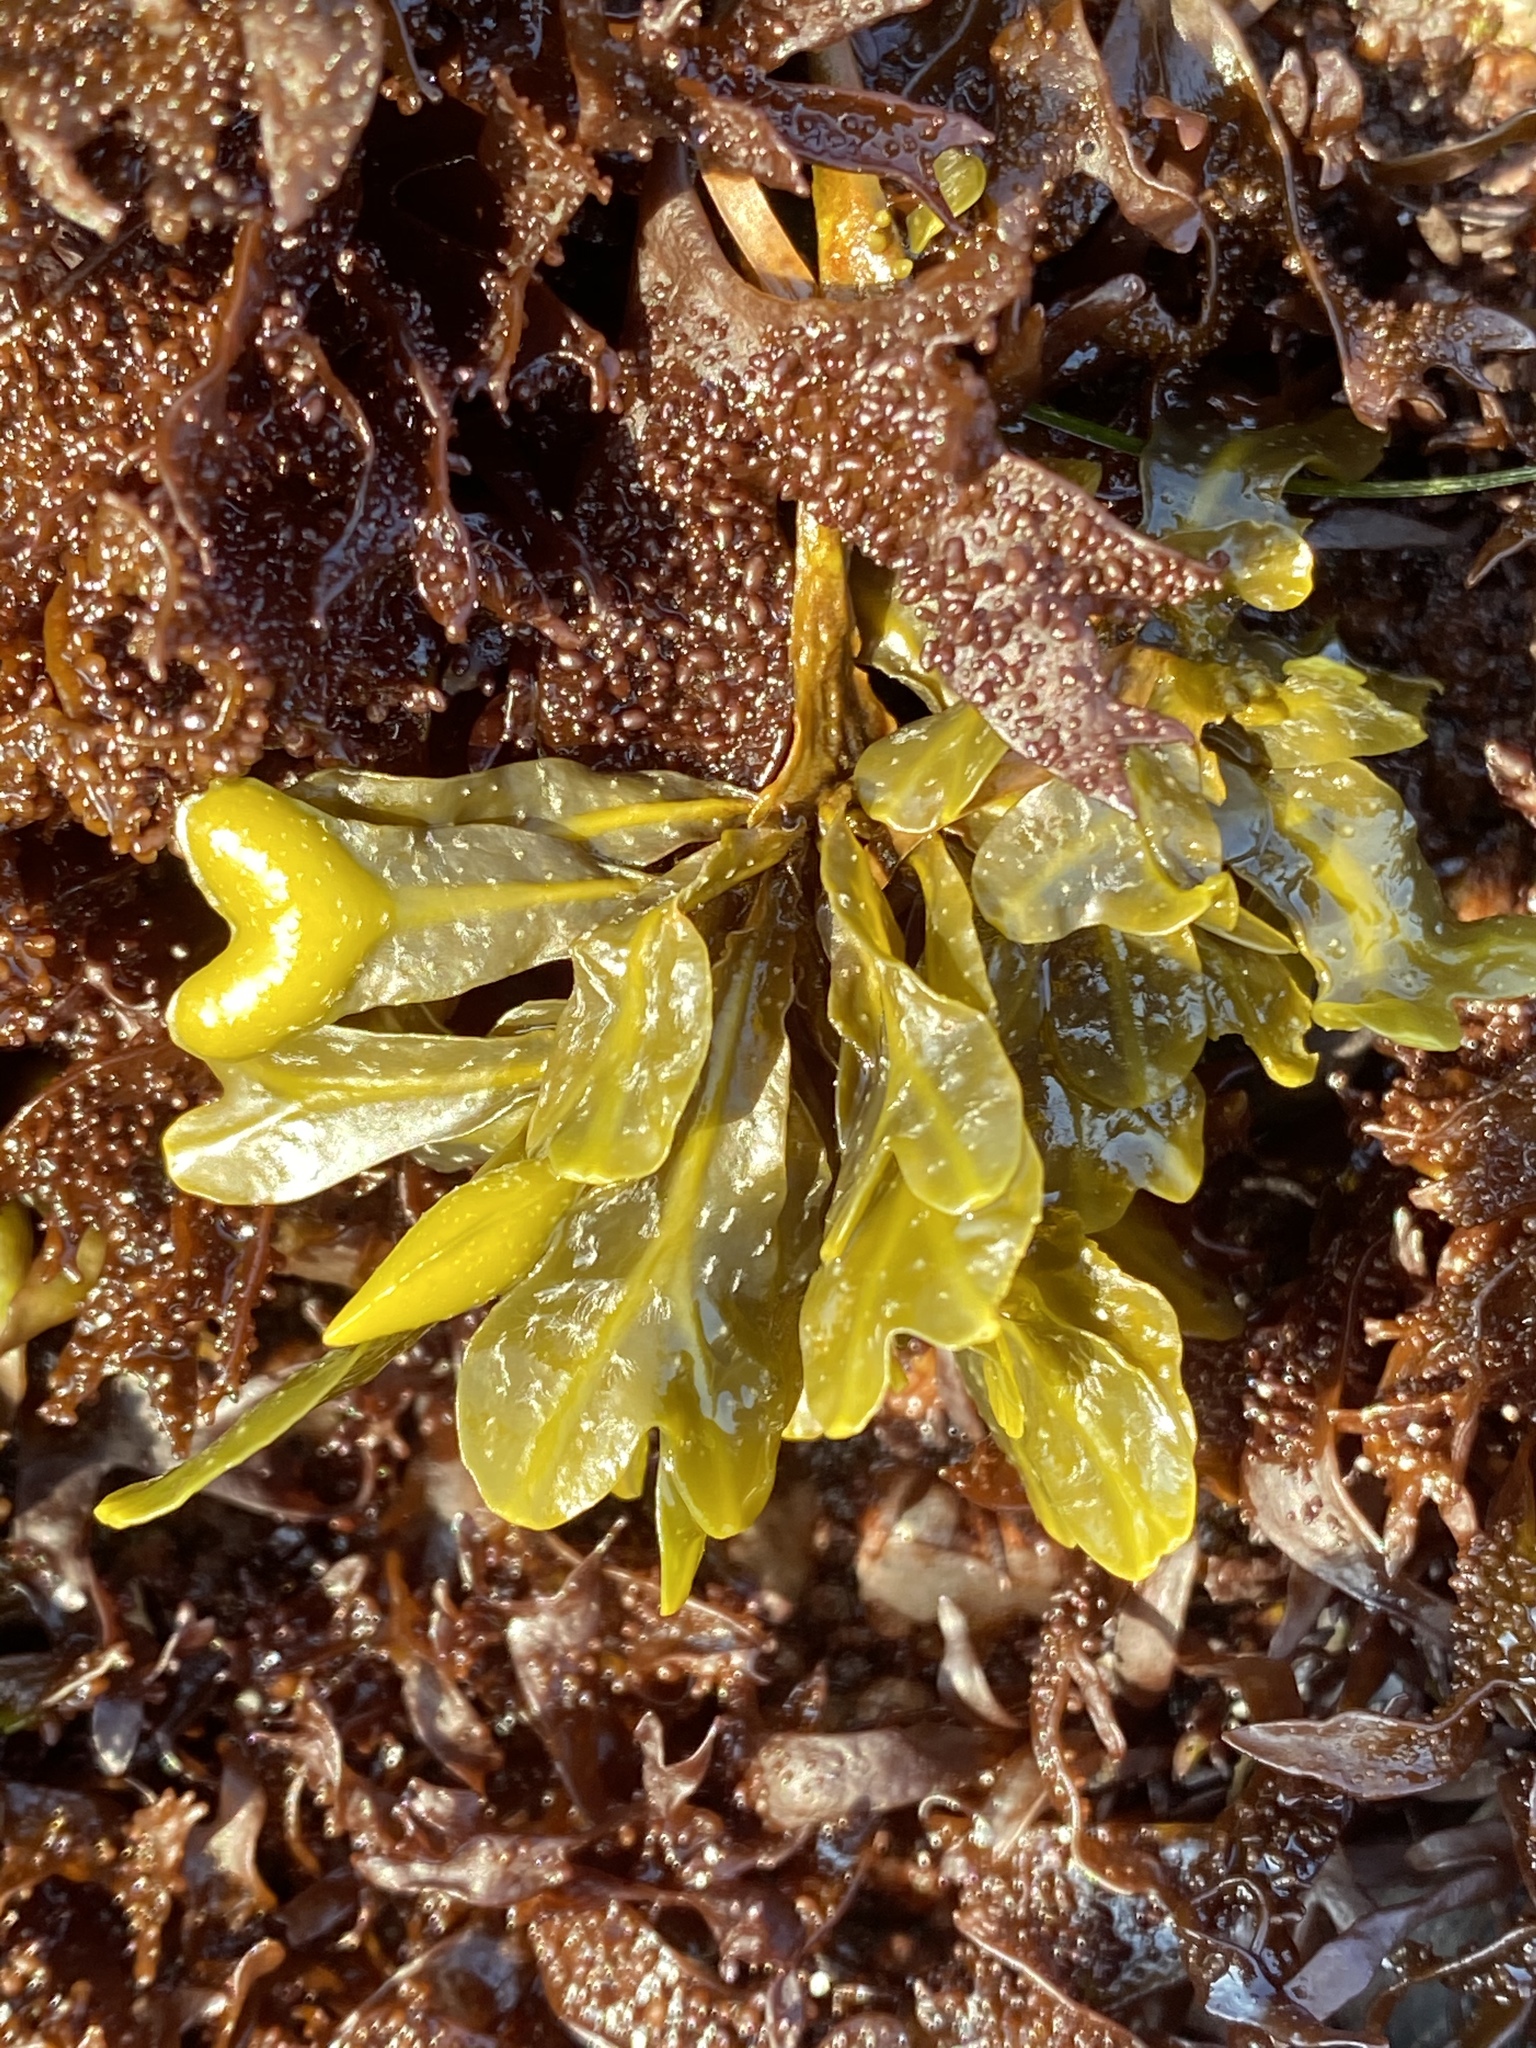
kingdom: Chromista
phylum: Ochrophyta
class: Phaeophyceae
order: Fucales
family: Fucaceae
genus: Fucus
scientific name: Fucus distichus
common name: Rockweed
